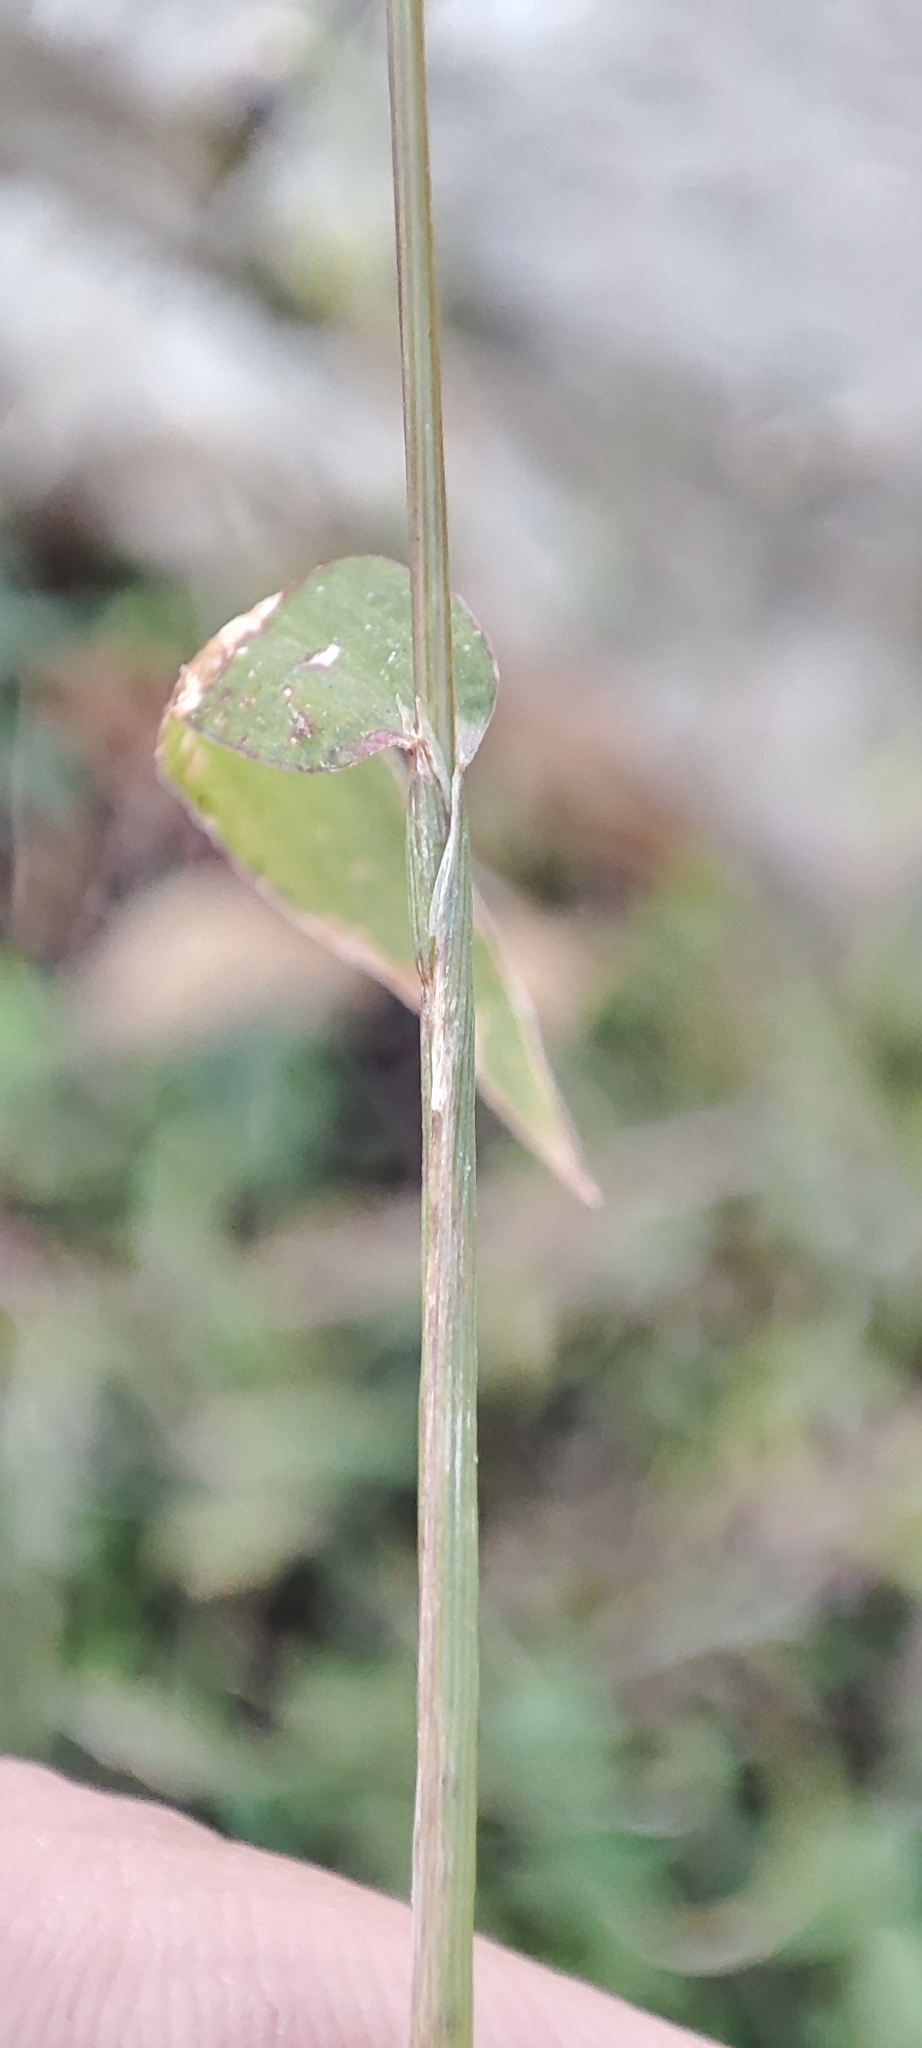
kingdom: Plantae
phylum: Tracheophyta
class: Liliopsida
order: Poales
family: Poaceae
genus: Digitaria
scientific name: Digitaria sanguinalis
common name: Hairy crabgrass
